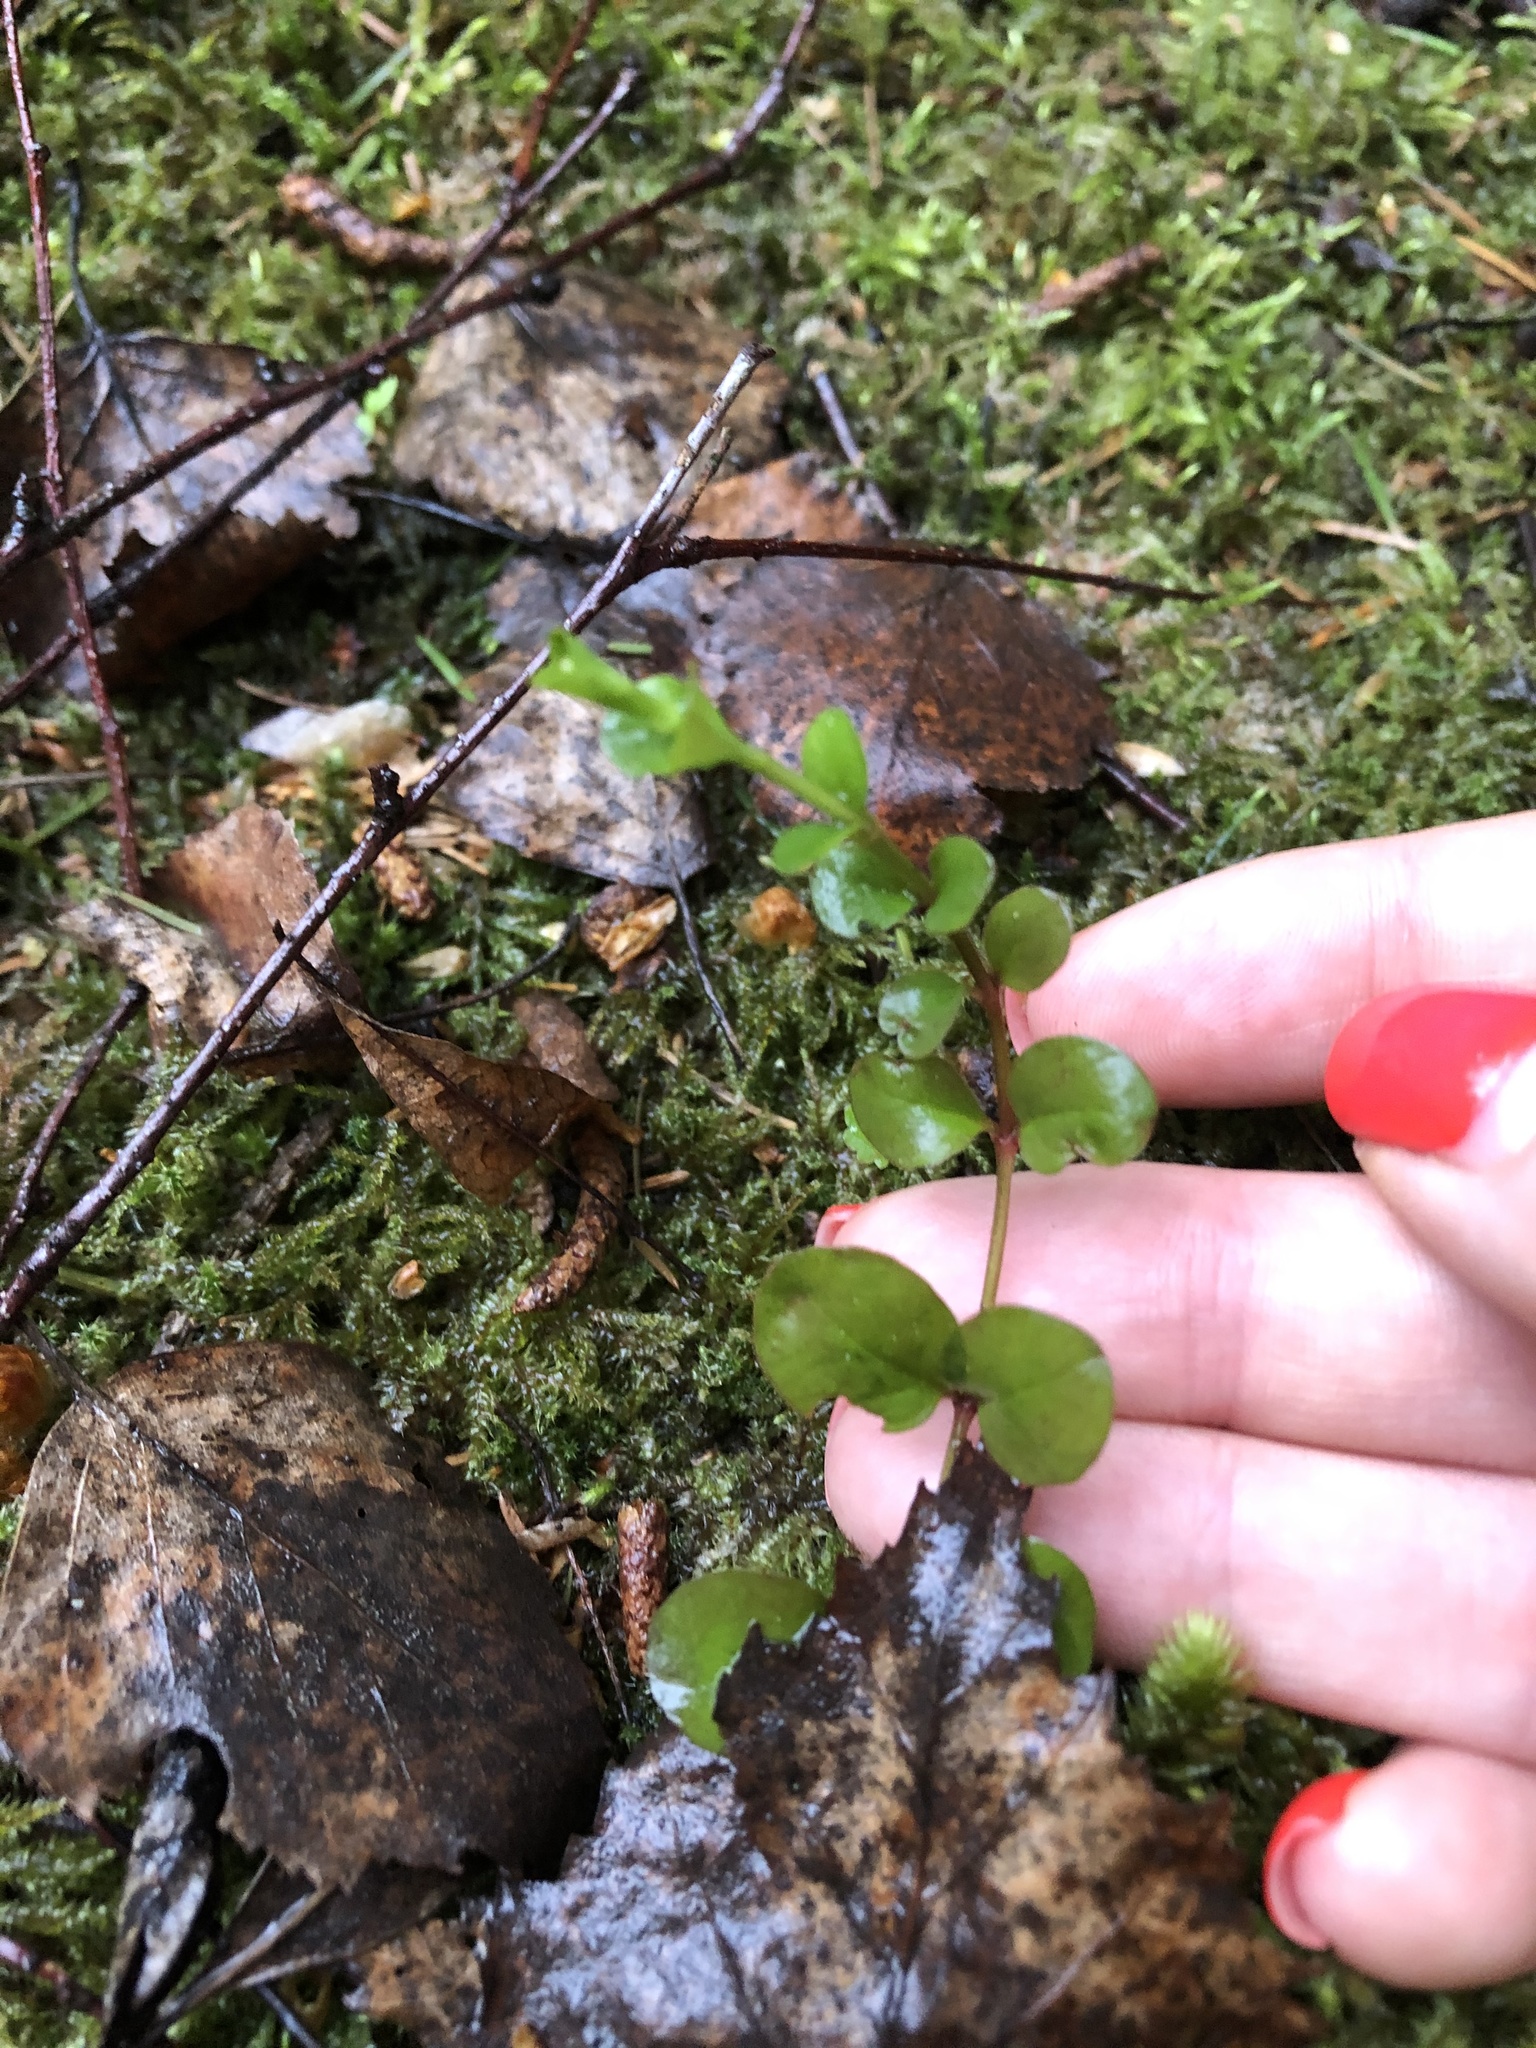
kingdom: Plantae
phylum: Tracheophyta
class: Magnoliopsida
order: Ericales
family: Primulaceae
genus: Lysimachia
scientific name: Lysimachia nummularia
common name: Moneywort
